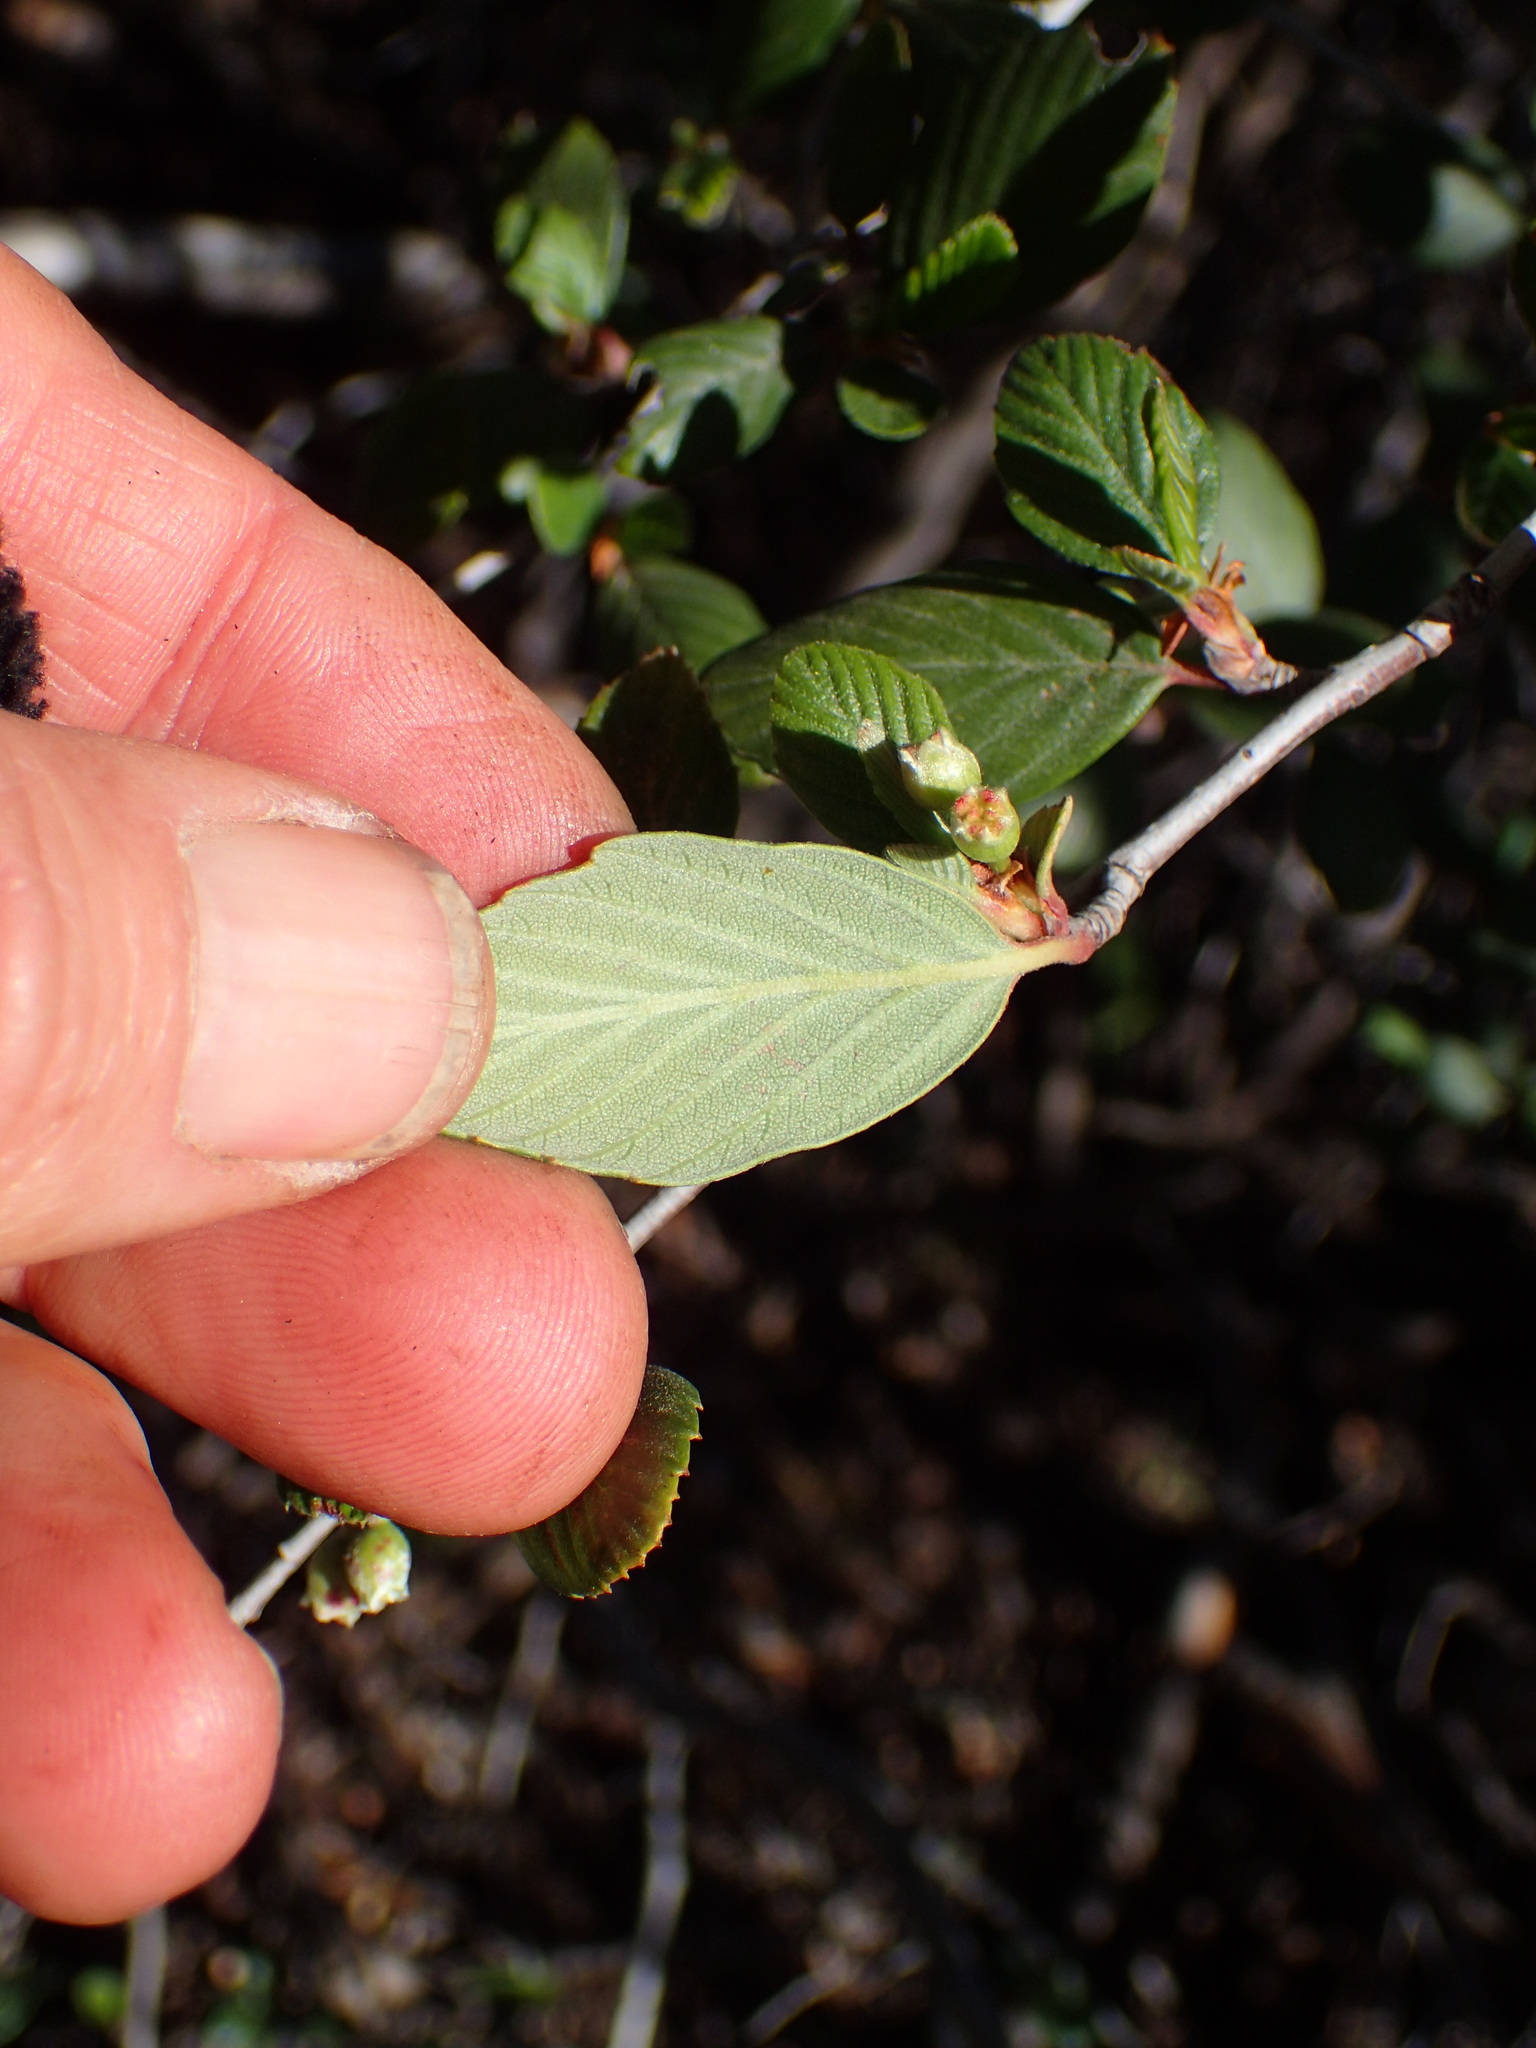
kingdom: Plantae
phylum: Tracheophyta
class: Magnoliopsida
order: Rosales
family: Rosaceae
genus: Cercocarpus
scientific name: Cercocarpus betuloides
